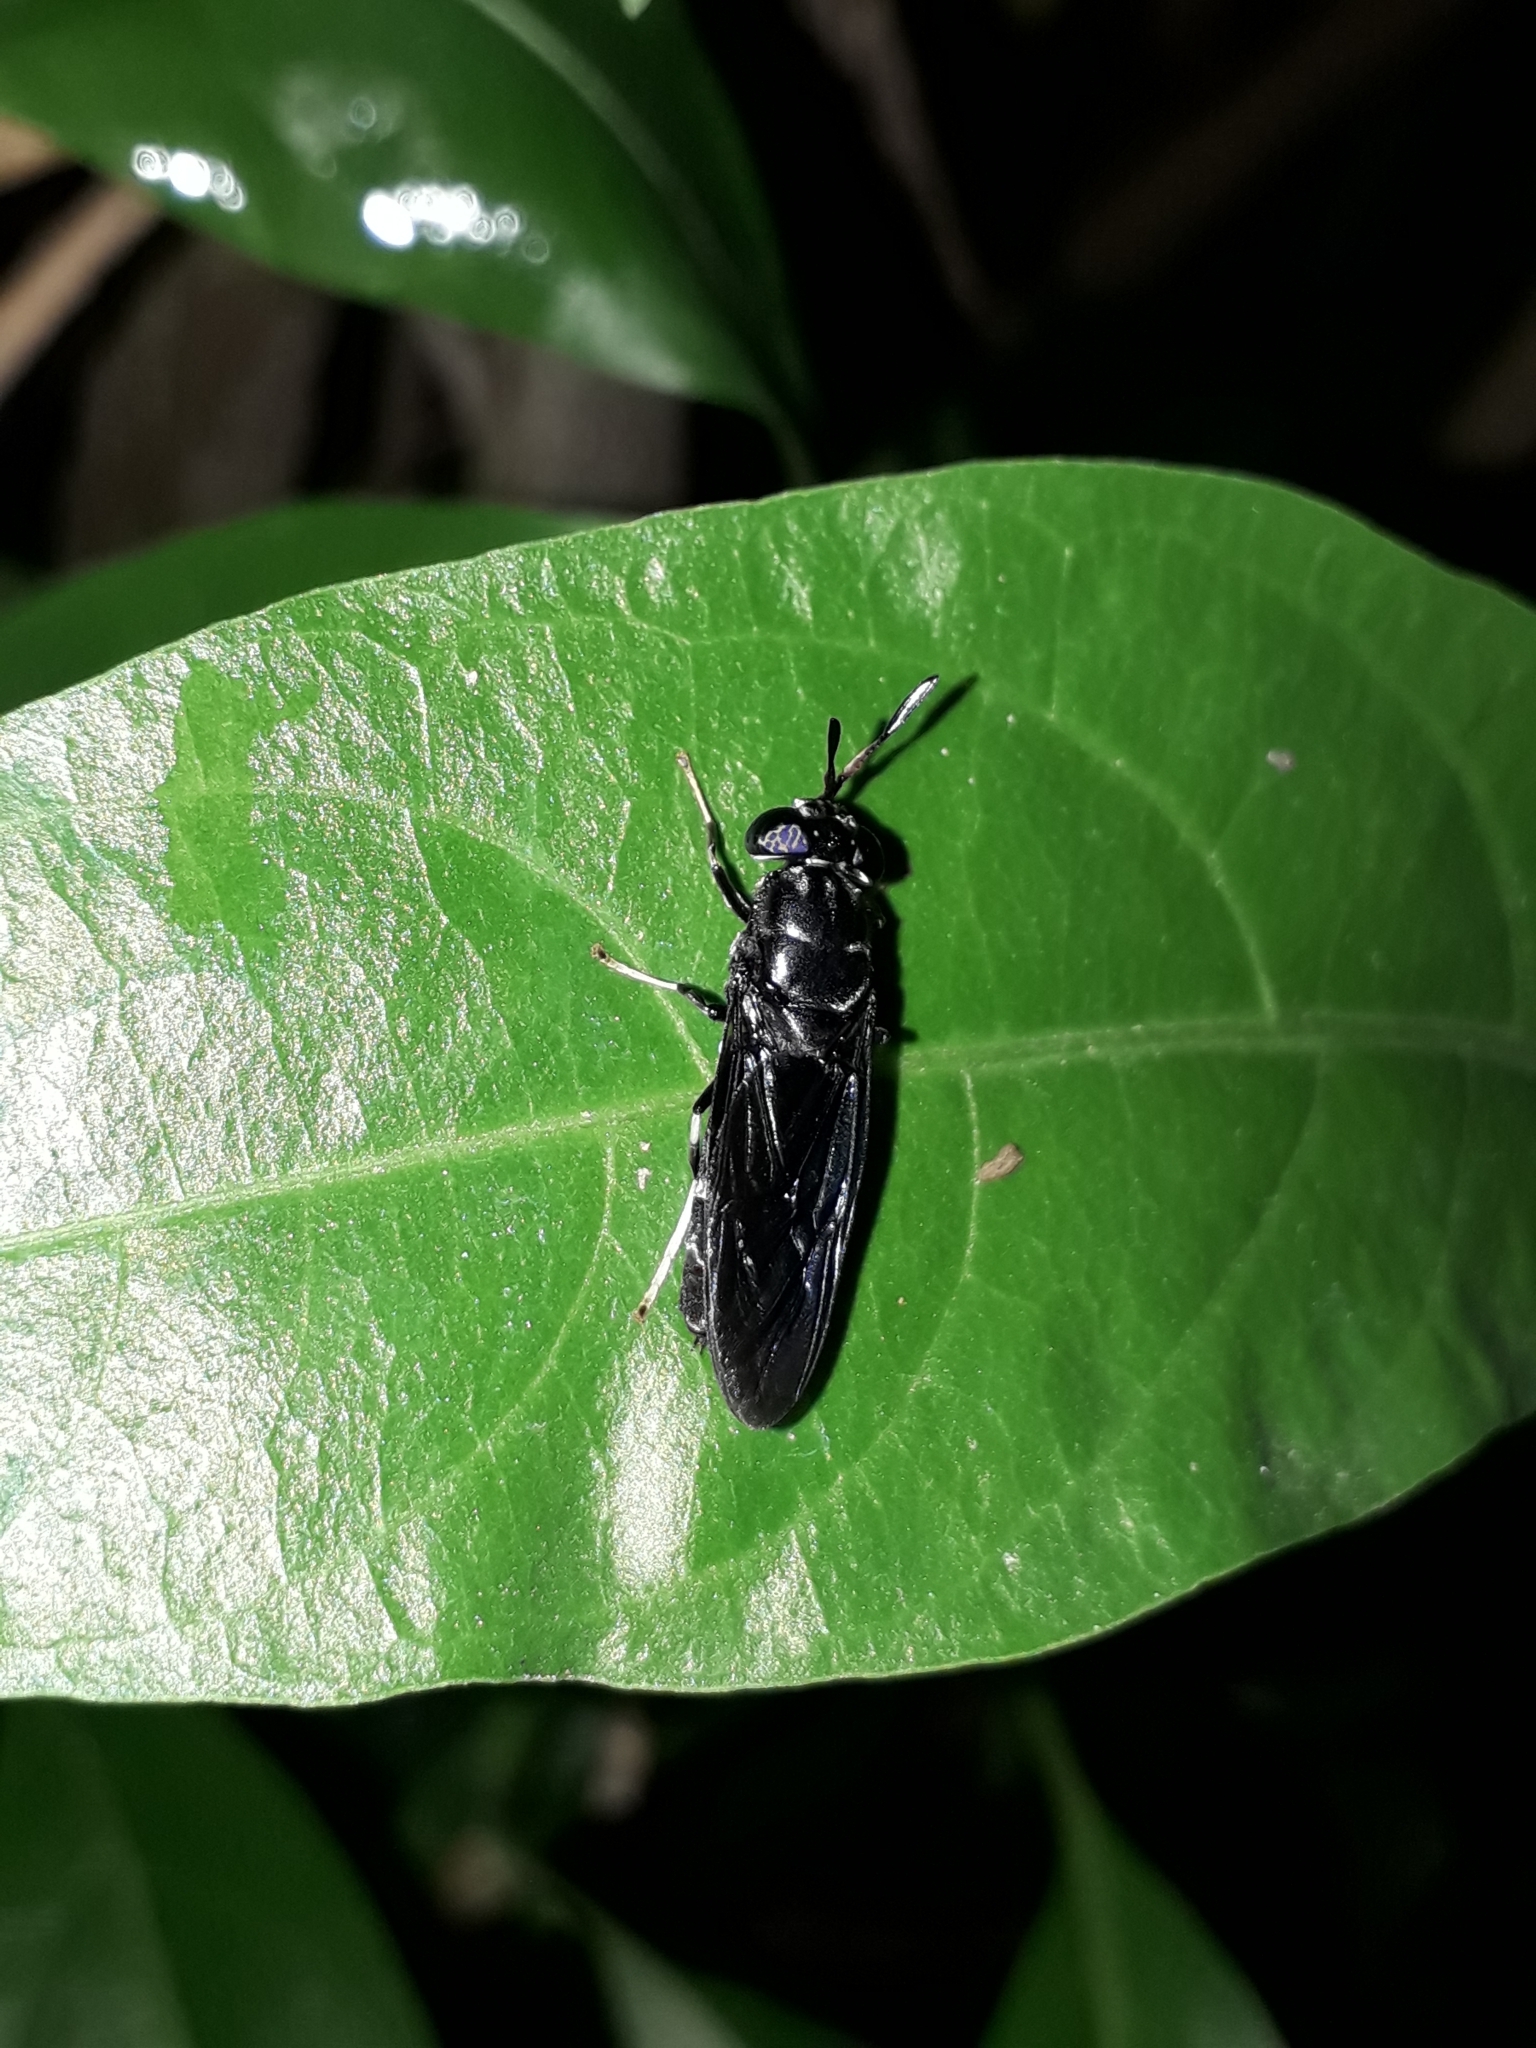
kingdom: Animalia
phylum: Arthropoda
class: Insecta
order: Diptera
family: Stratiomyidae
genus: Hermetia
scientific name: Hermetia illucens
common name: Black soldier fly
